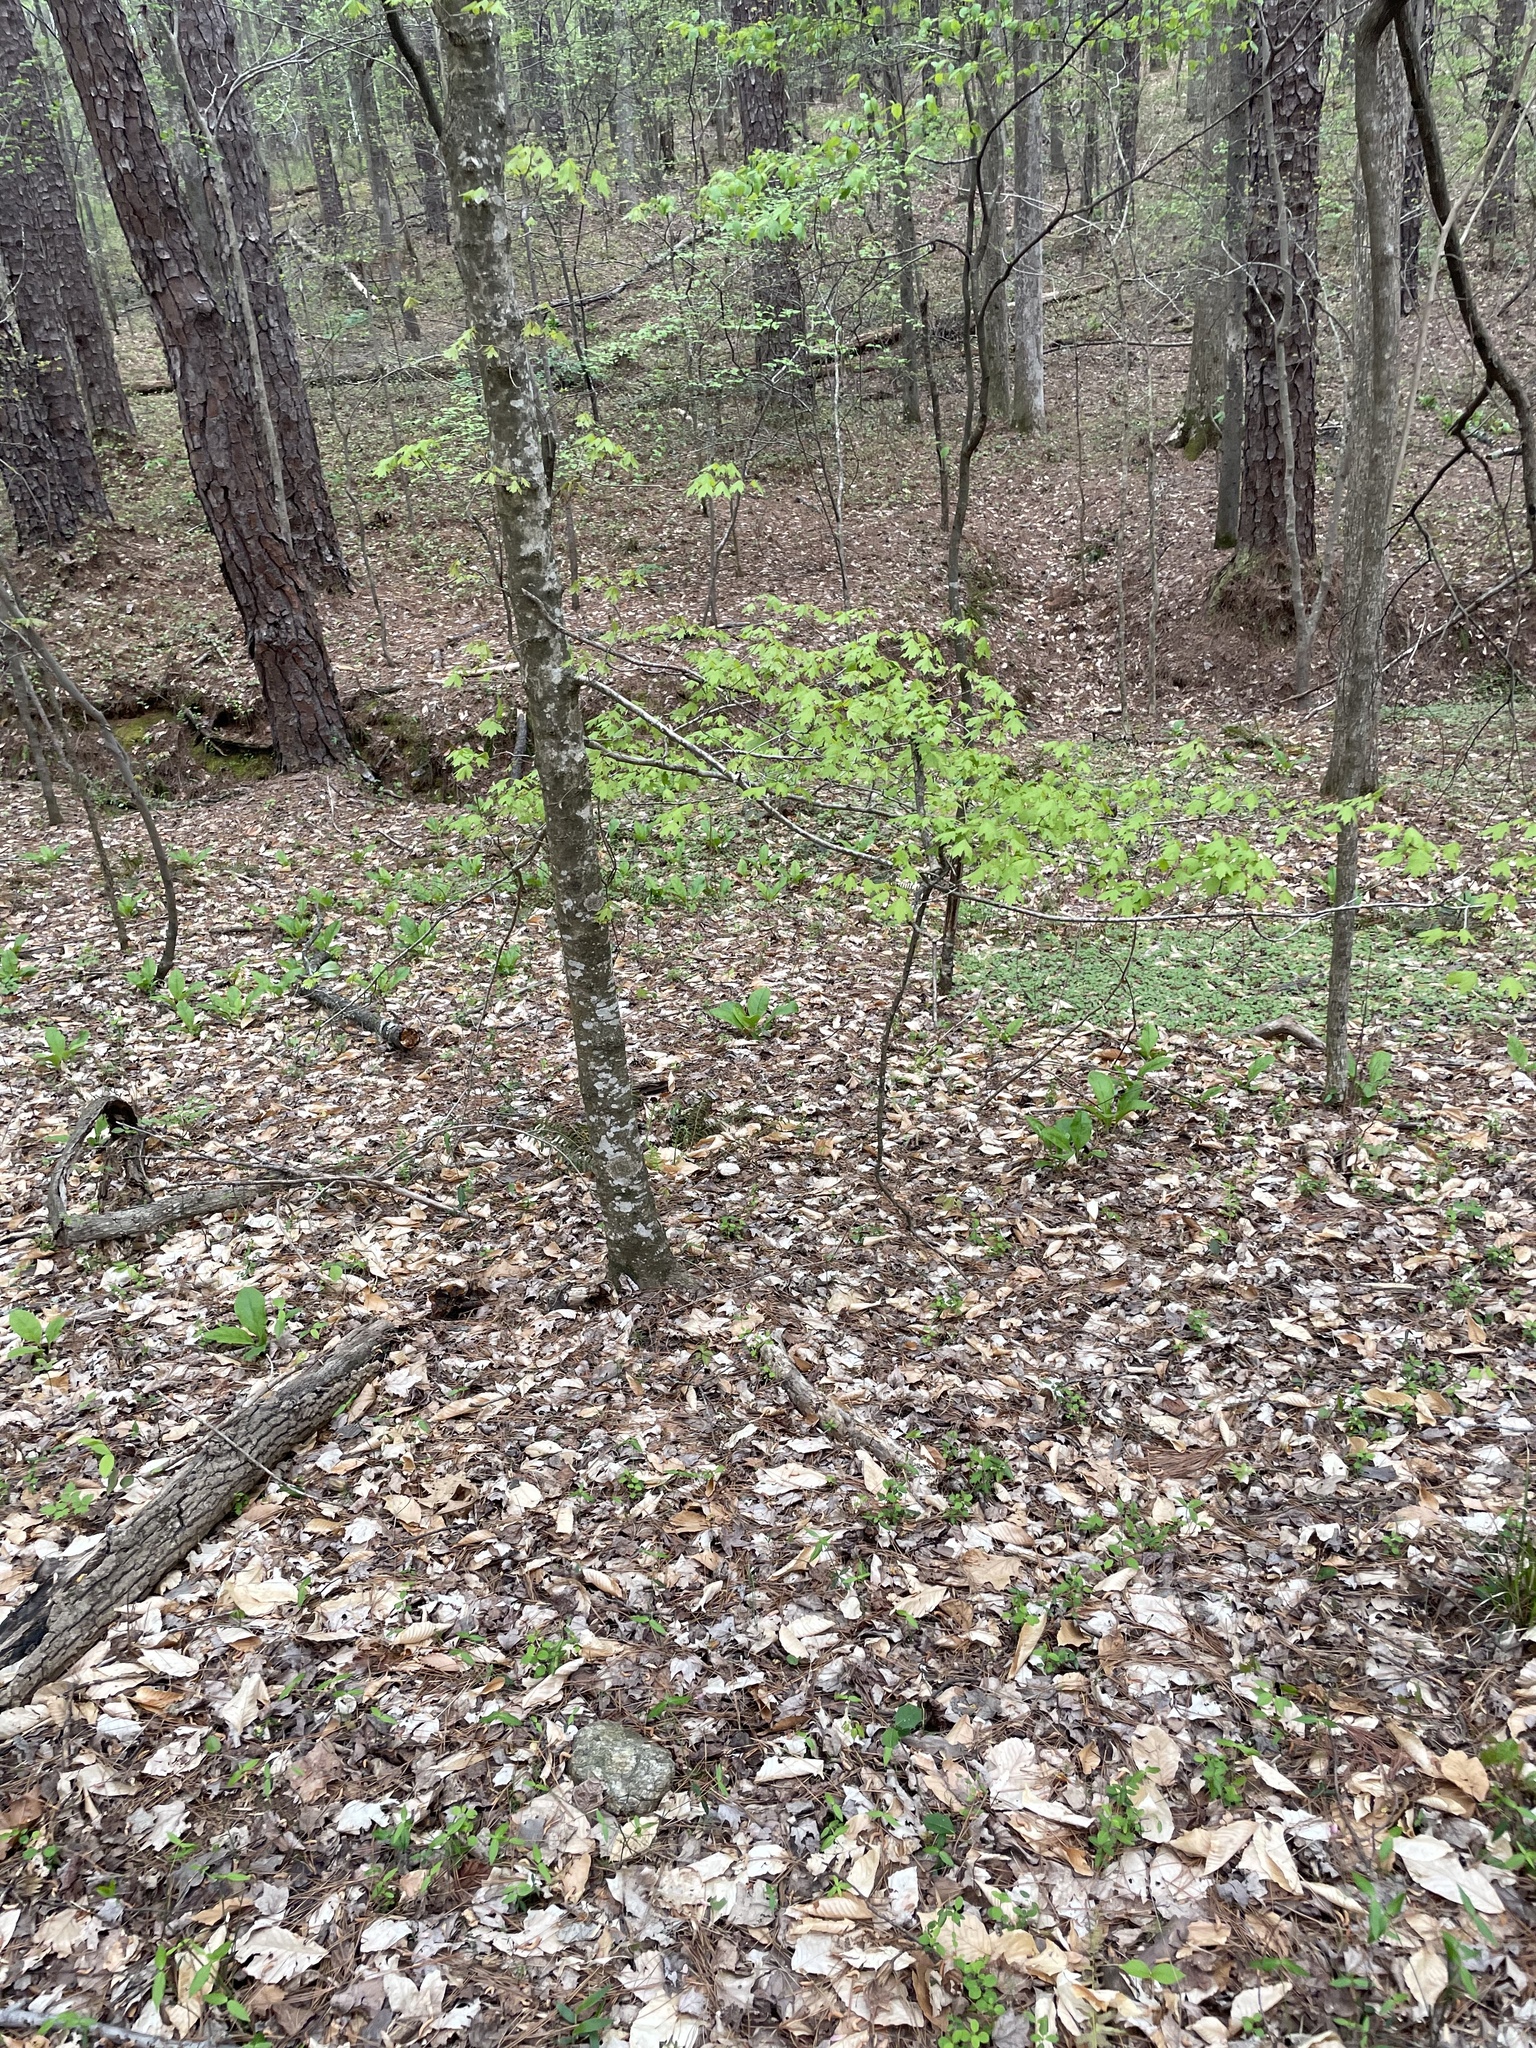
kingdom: Plantae
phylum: Tracheophyta
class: Magnoliopsida
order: Sapindales
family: Sapindaceae
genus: Acer
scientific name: Acer floridanum
